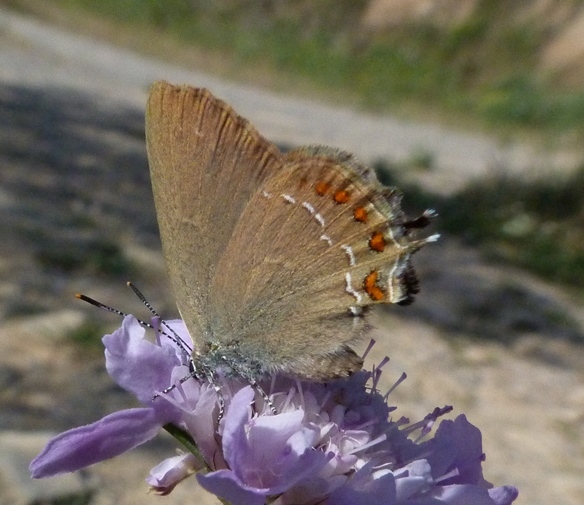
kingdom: Animalia
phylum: Arthropoda
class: Insecta
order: Lepidoptera
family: Lycaenidae
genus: Fixsenia
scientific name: Fixsenia esculi
